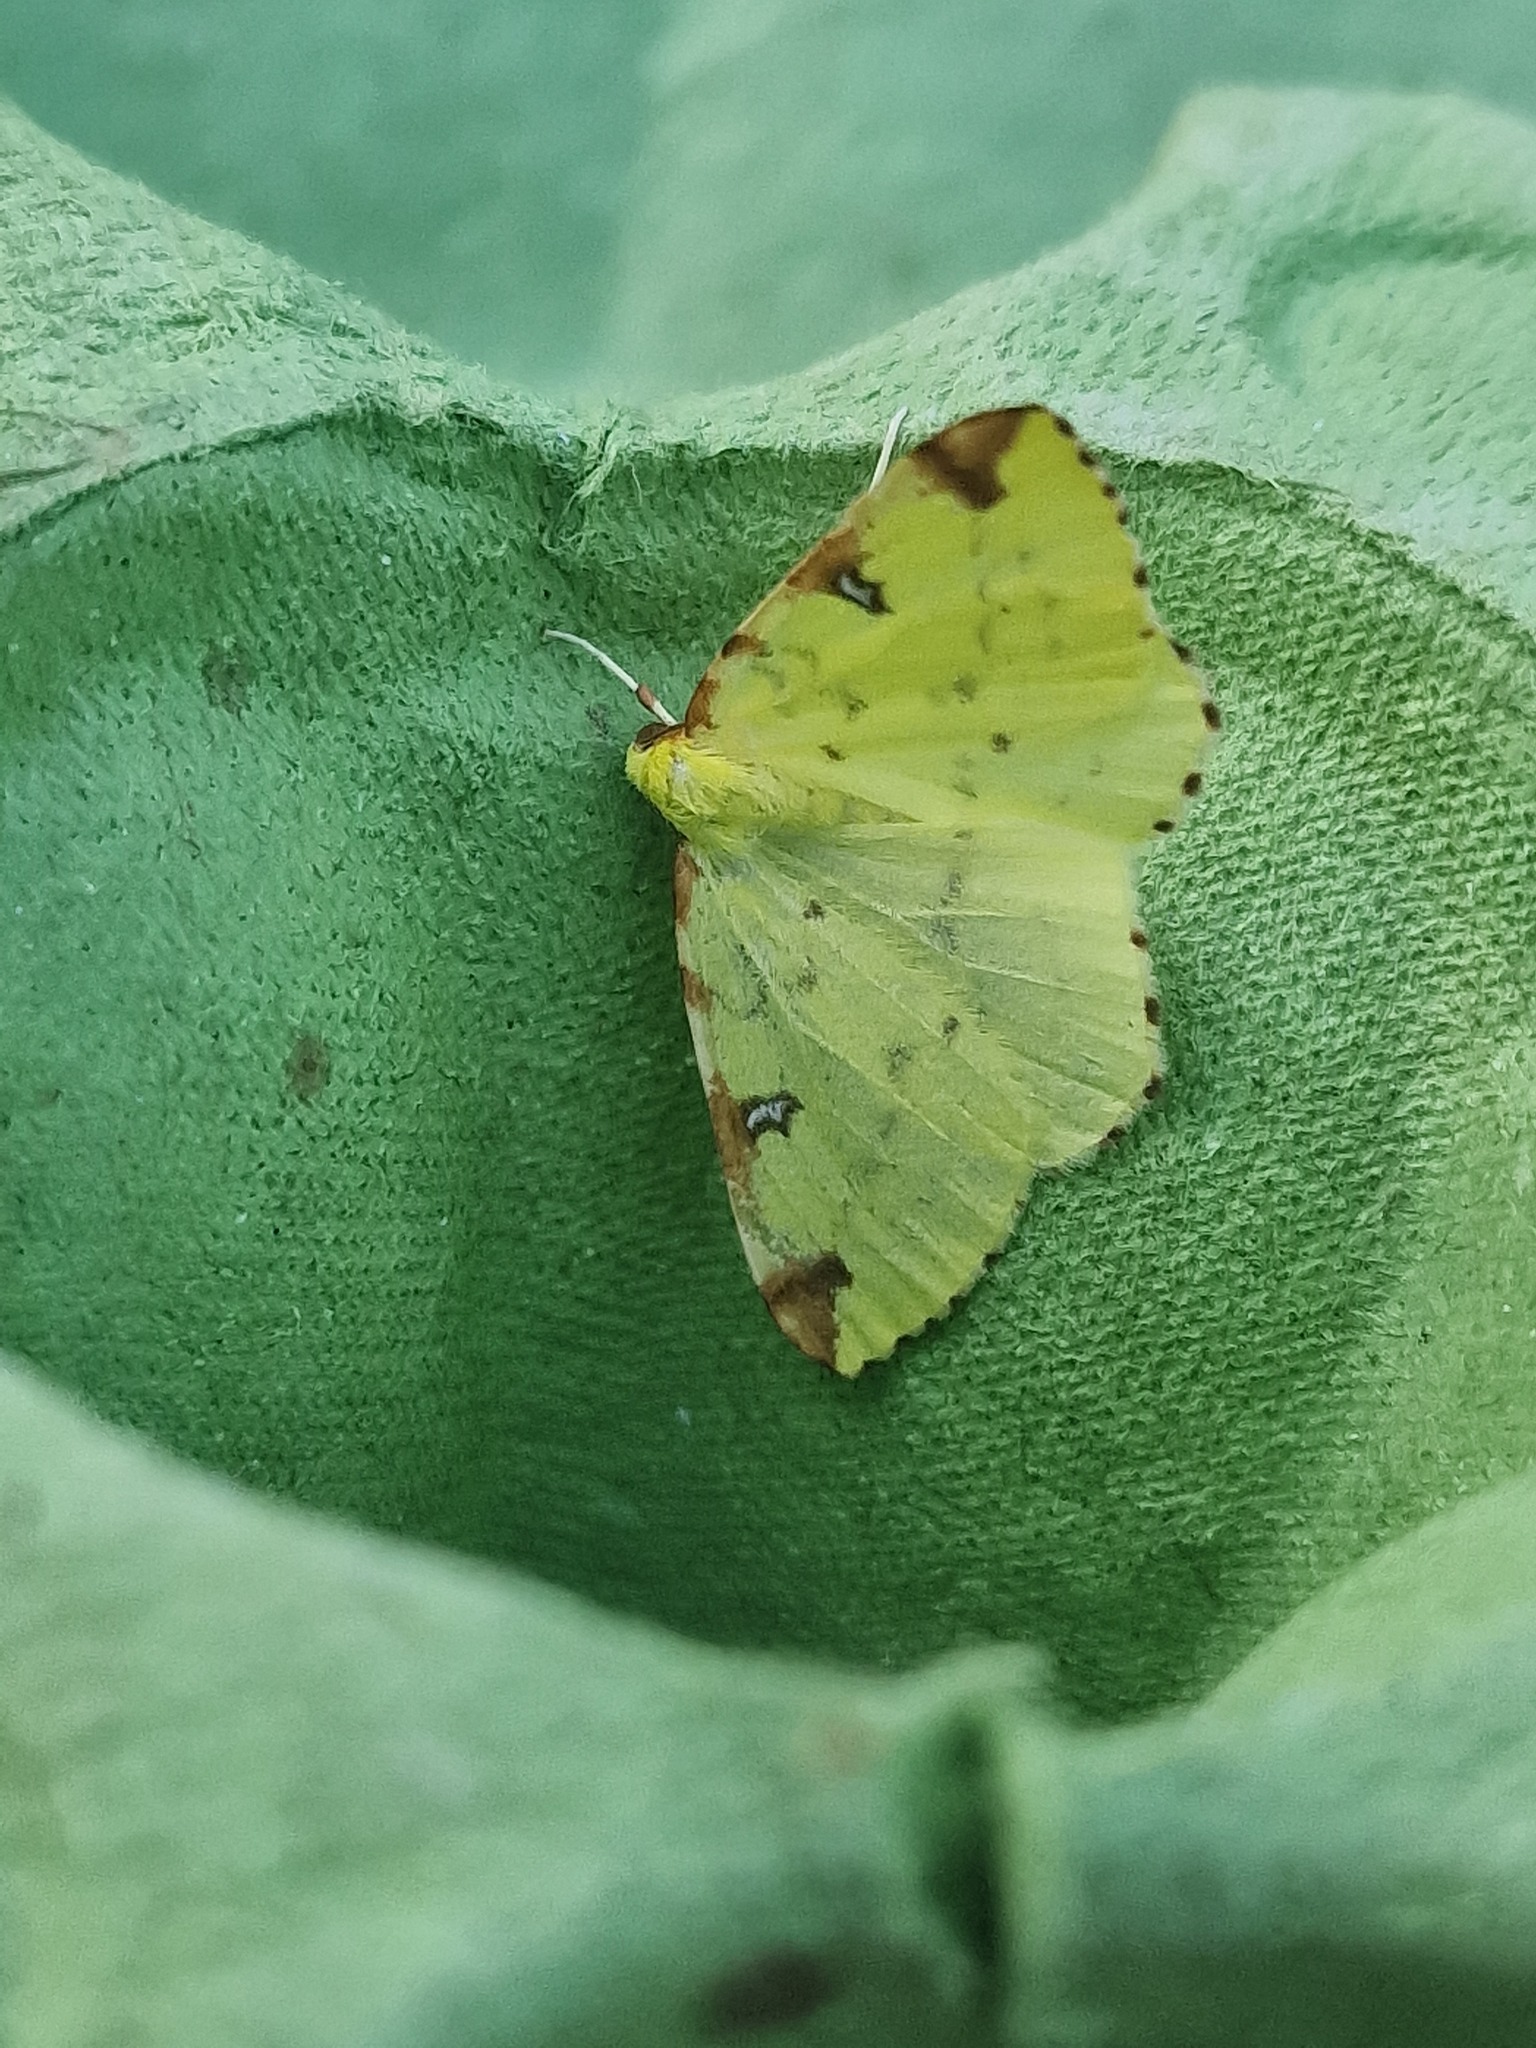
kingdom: Animalia
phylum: Arthropoda
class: Insecta
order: Lepidoptera
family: Geometridae
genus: Opisthograptis
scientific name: Opisthograptis luteolata
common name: Brimstone moth
